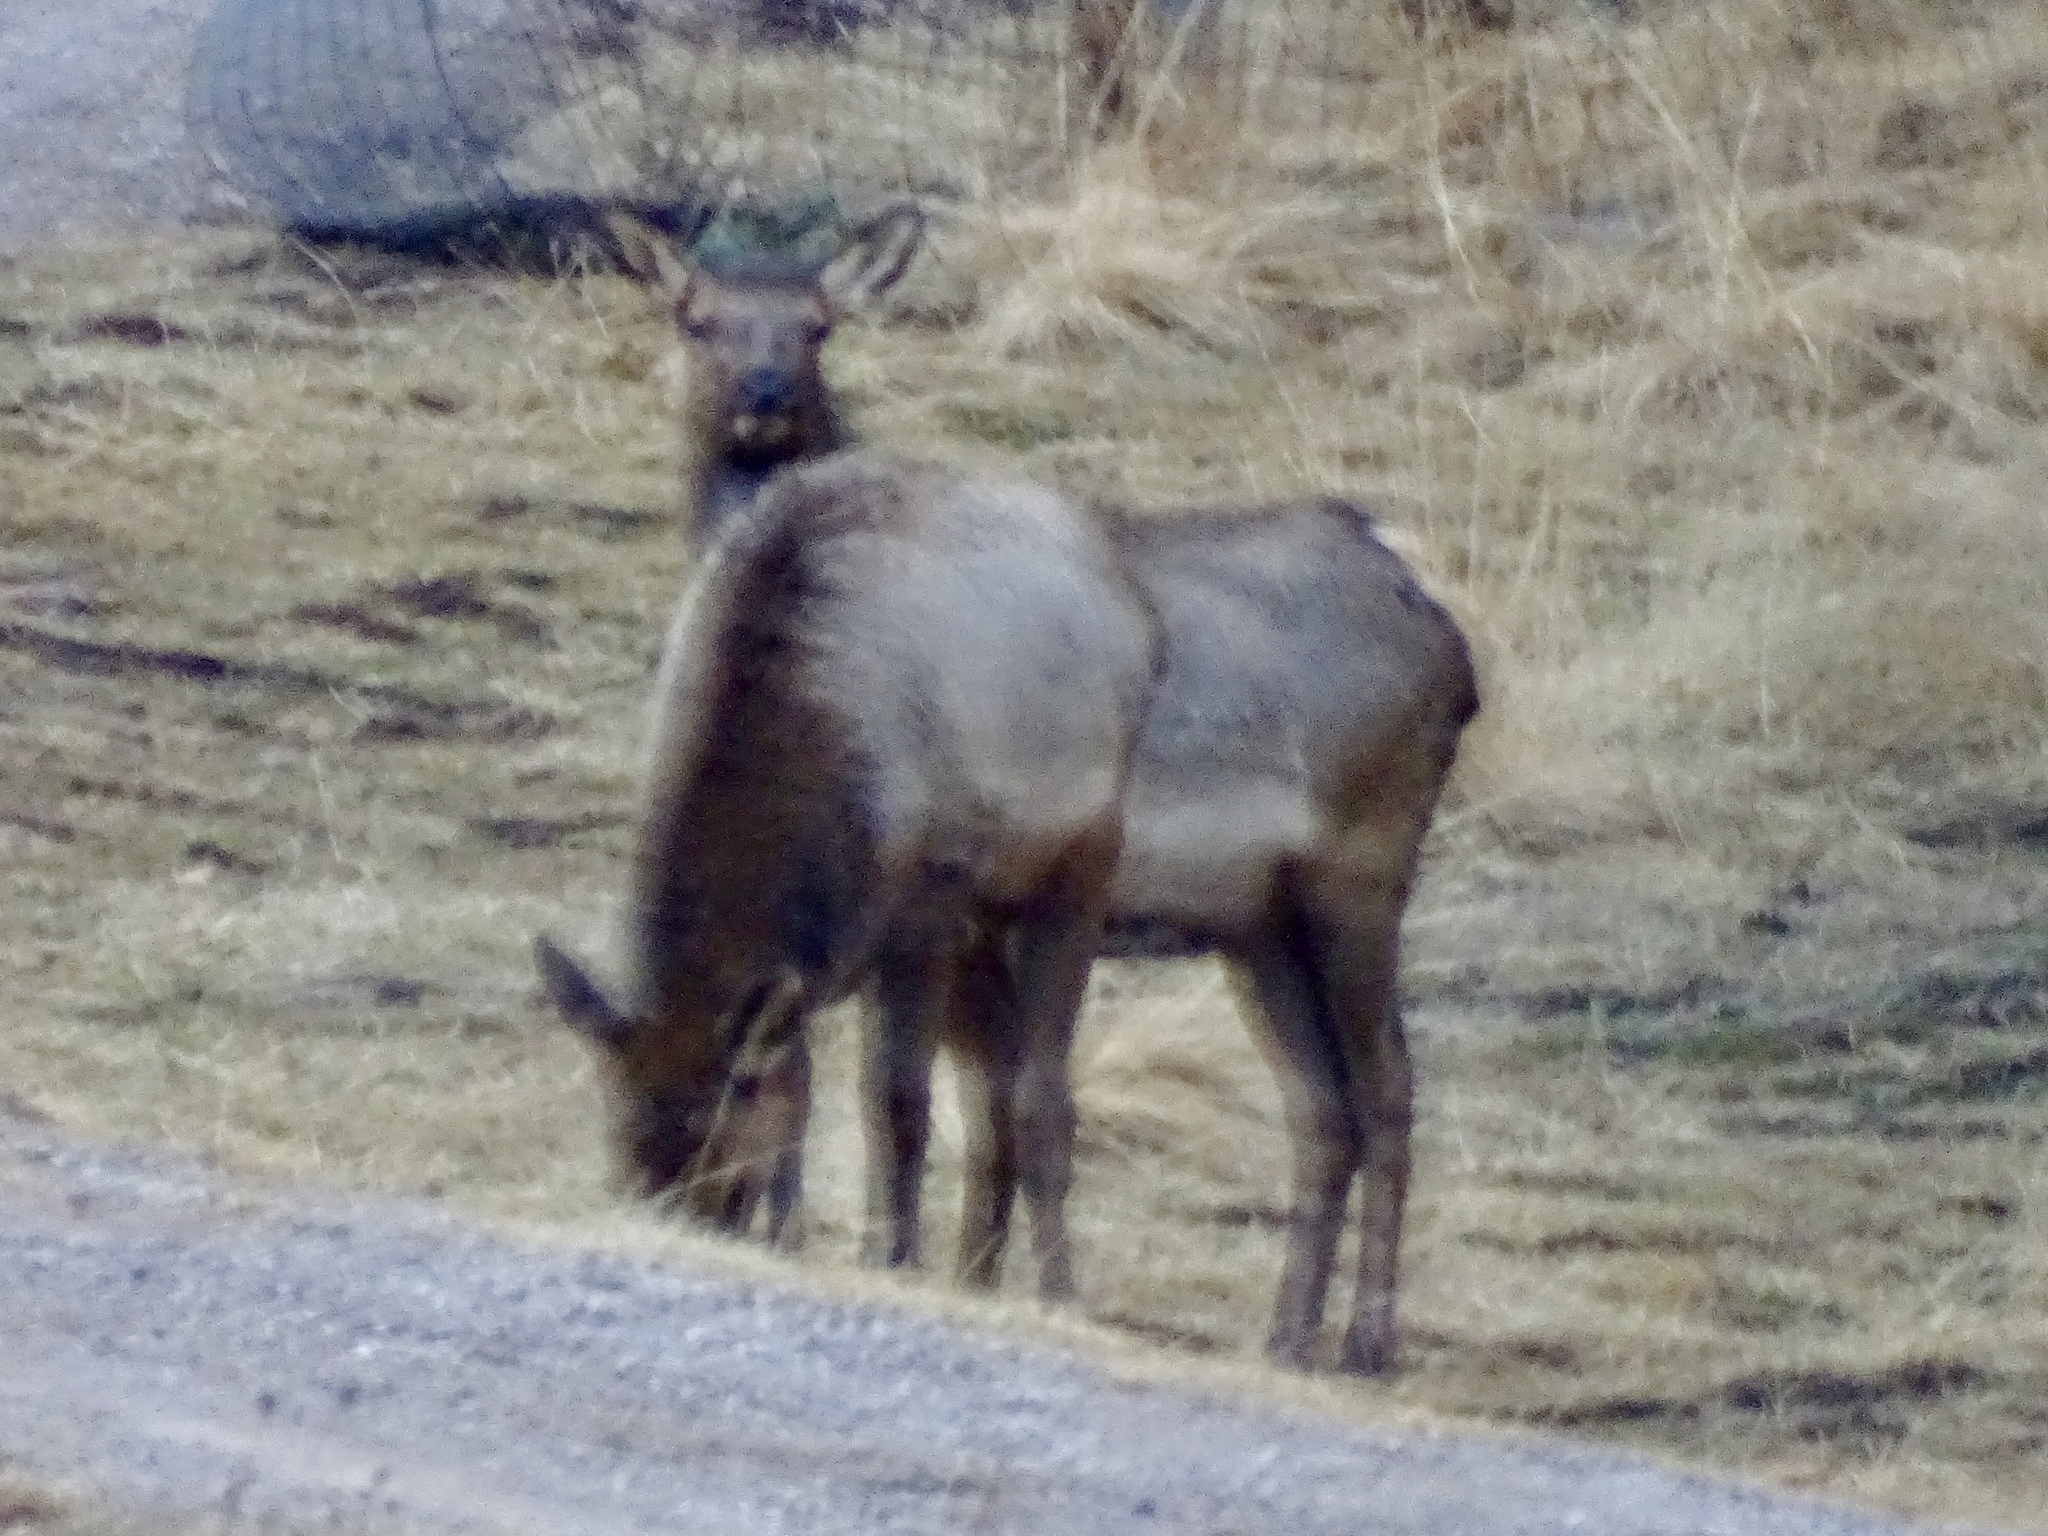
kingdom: Animalia
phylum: Chordata
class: Mammalia
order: Artiodactyla
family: Cervidae
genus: Cervus
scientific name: Cervus elaphus
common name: Red deer
